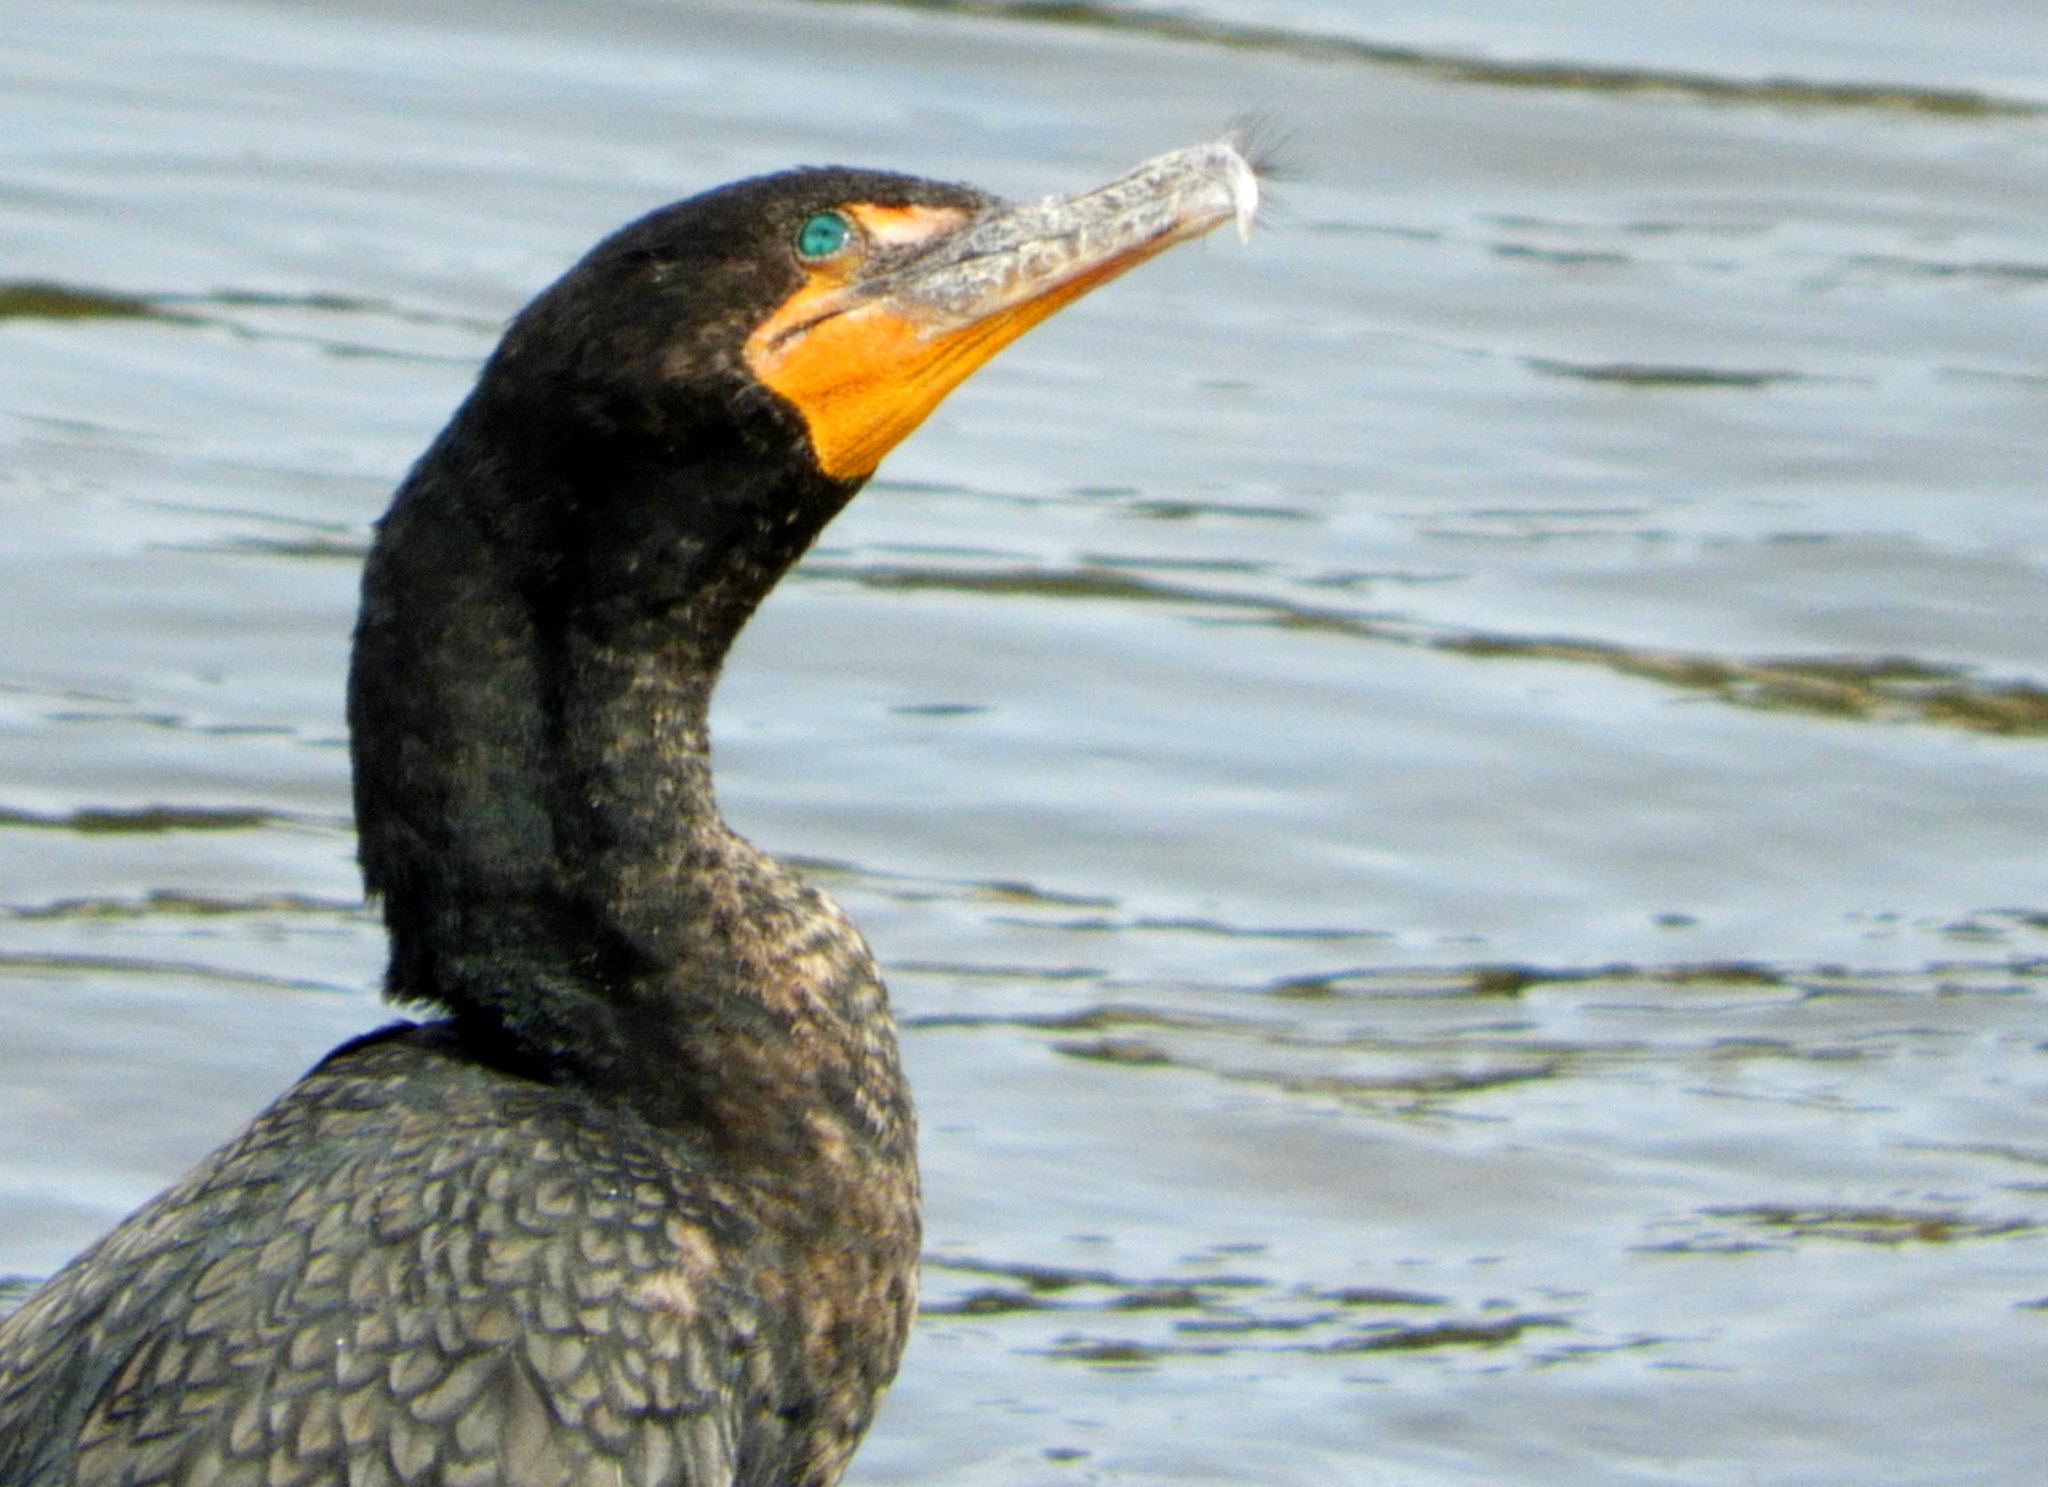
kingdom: Animalia
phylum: Chordata
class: Aves
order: Suliformes
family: Phalacrocoracidae
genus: Phalacrocorax
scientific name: Phalacrocorax auritus
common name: Double-crested cormorant
